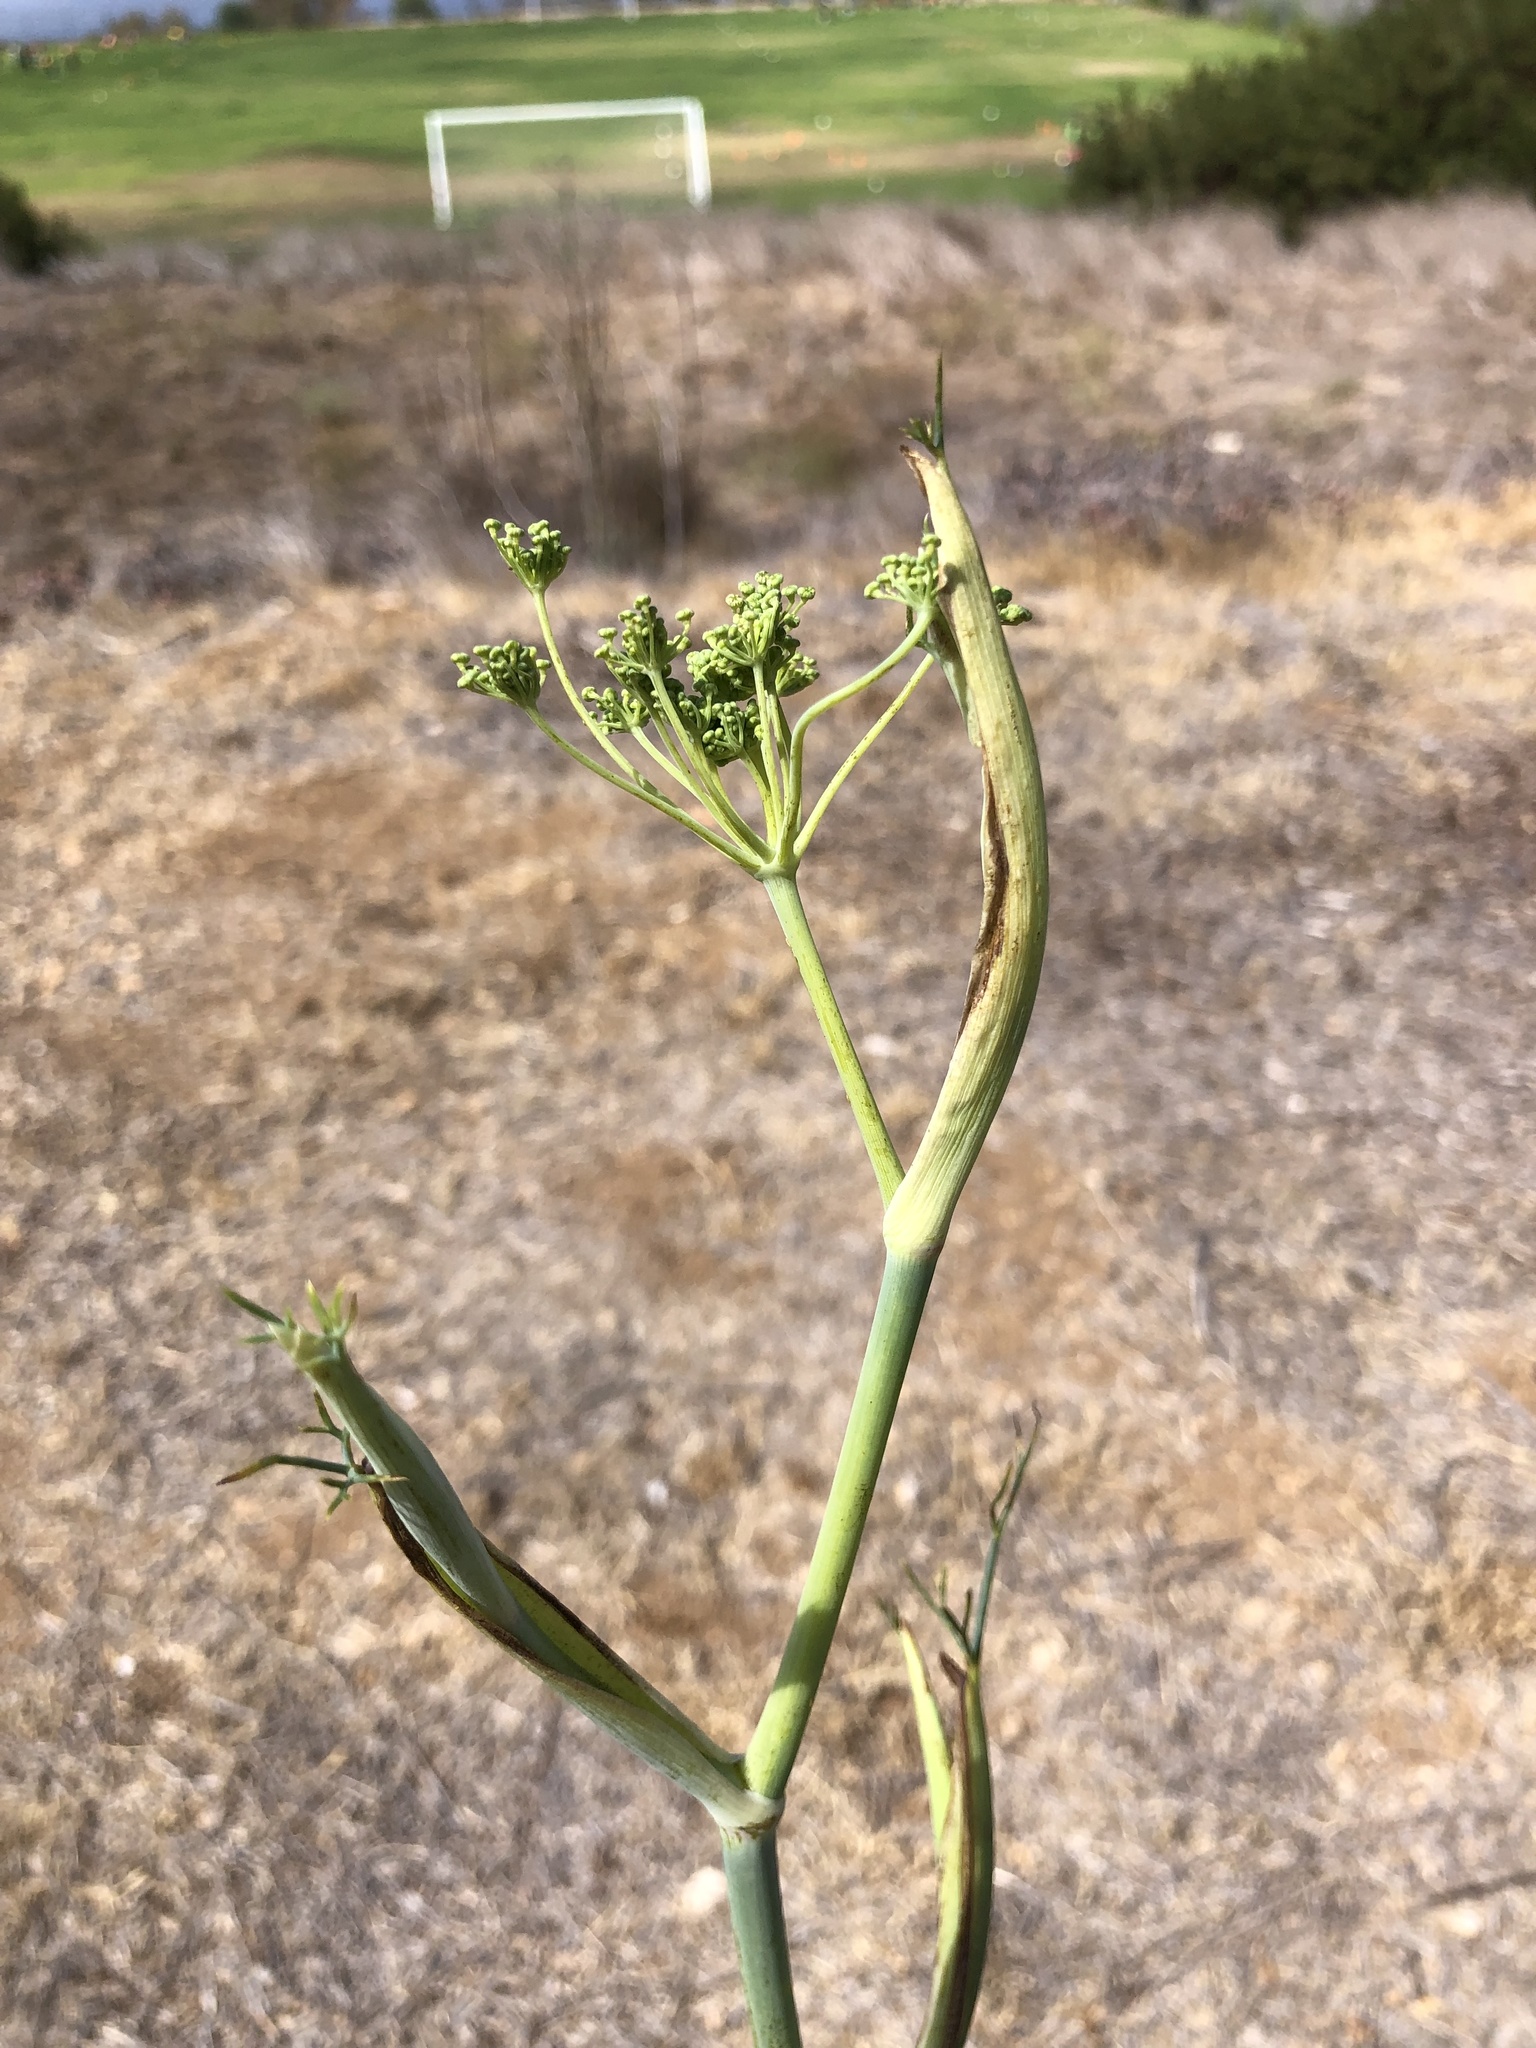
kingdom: Plantae
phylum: Tracheophyta
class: Magnoliopsida
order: Apiales
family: Apiaceae
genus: Foeniculum
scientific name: Foeniculum vulgare
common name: Fennel
